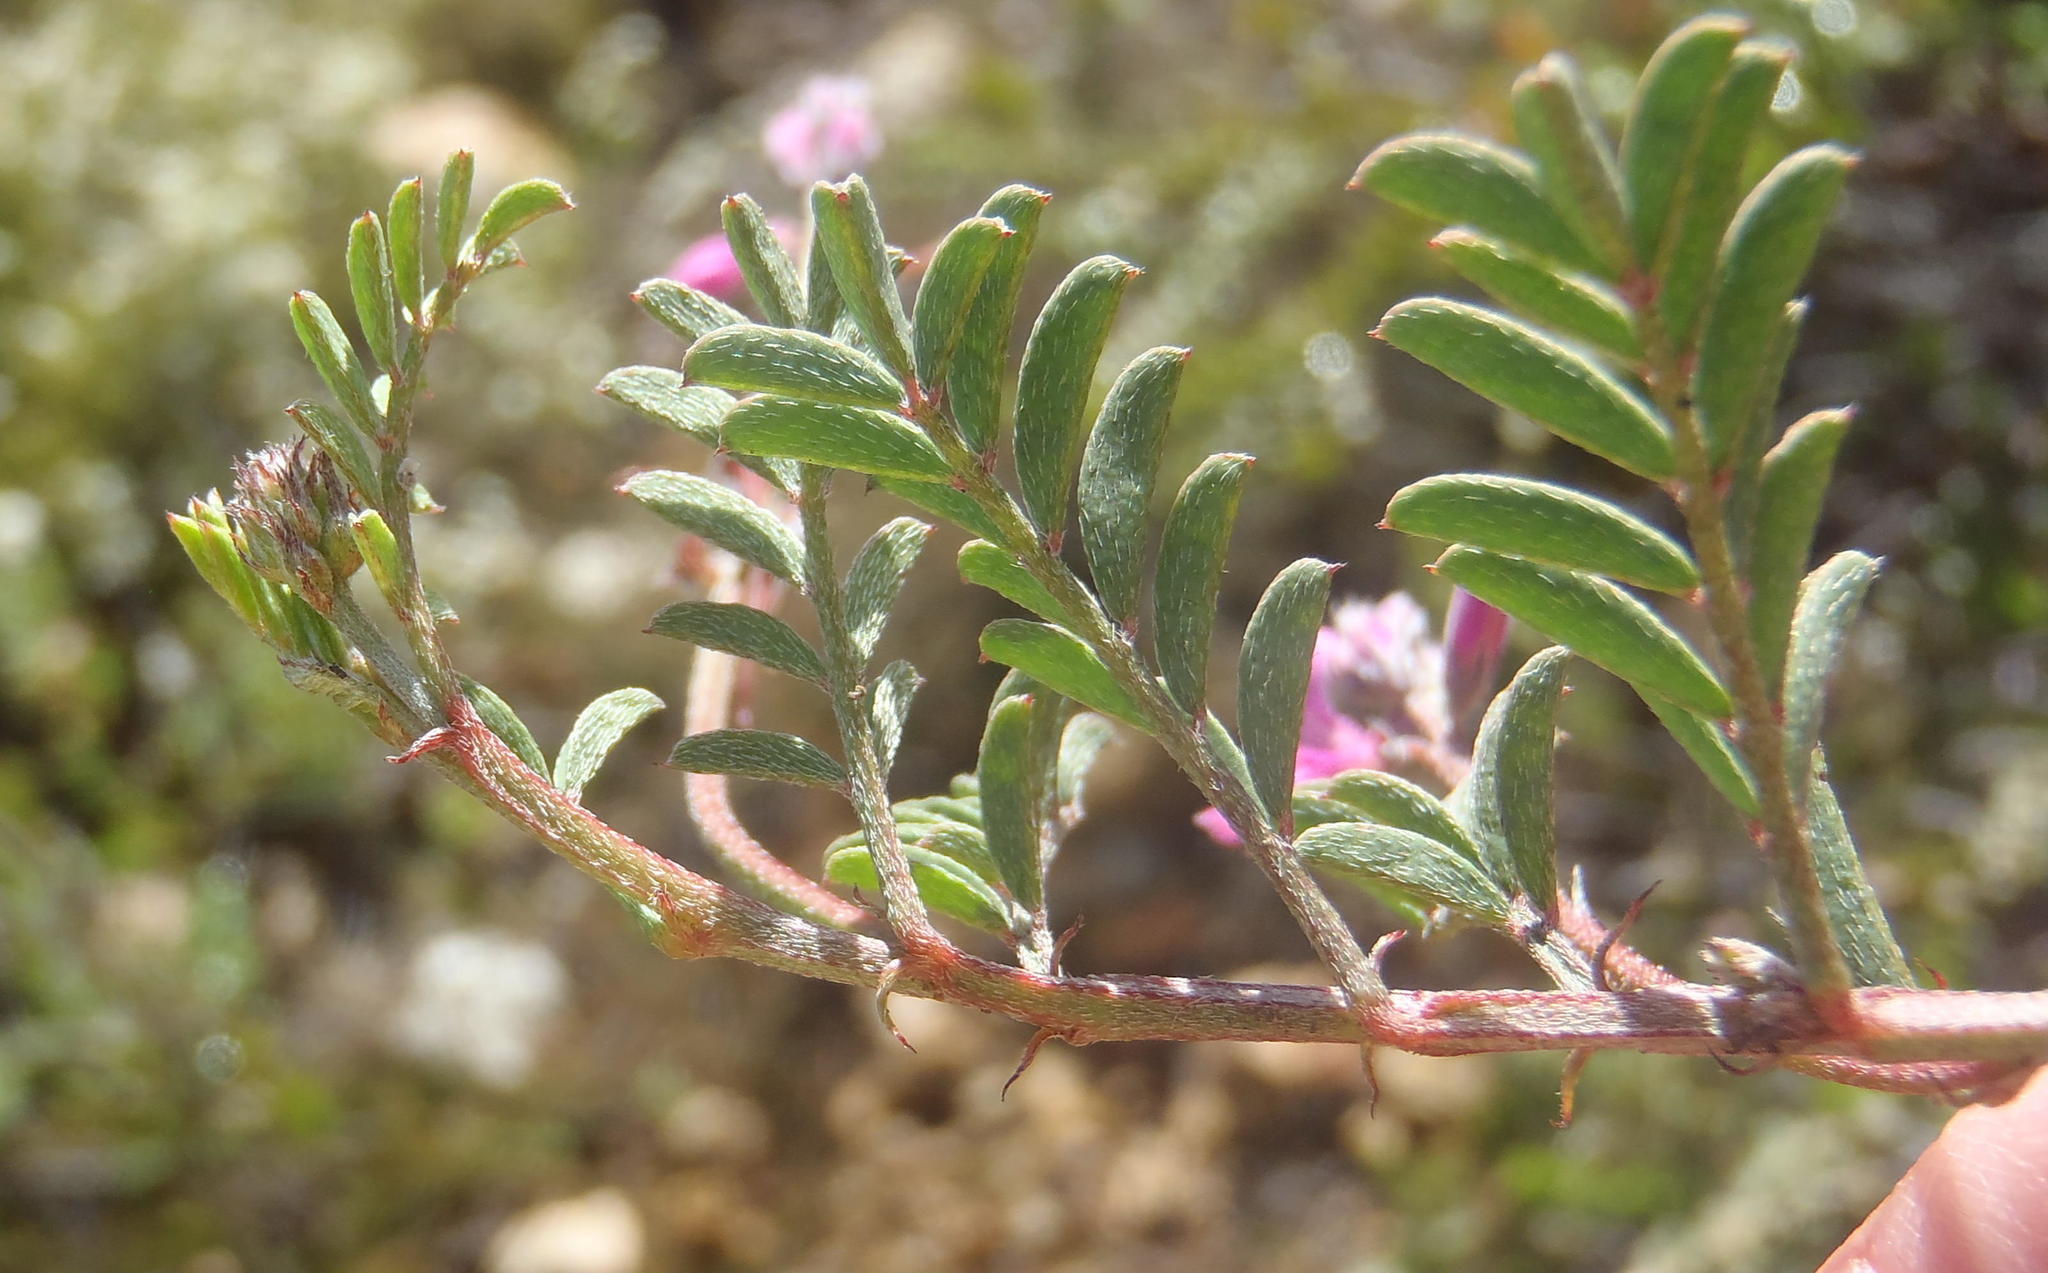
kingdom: Plantae
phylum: Tracheophyta
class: Magnoliopsida
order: Fabales
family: Fabaceae
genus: Indigofera
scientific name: Indigofera declinata
